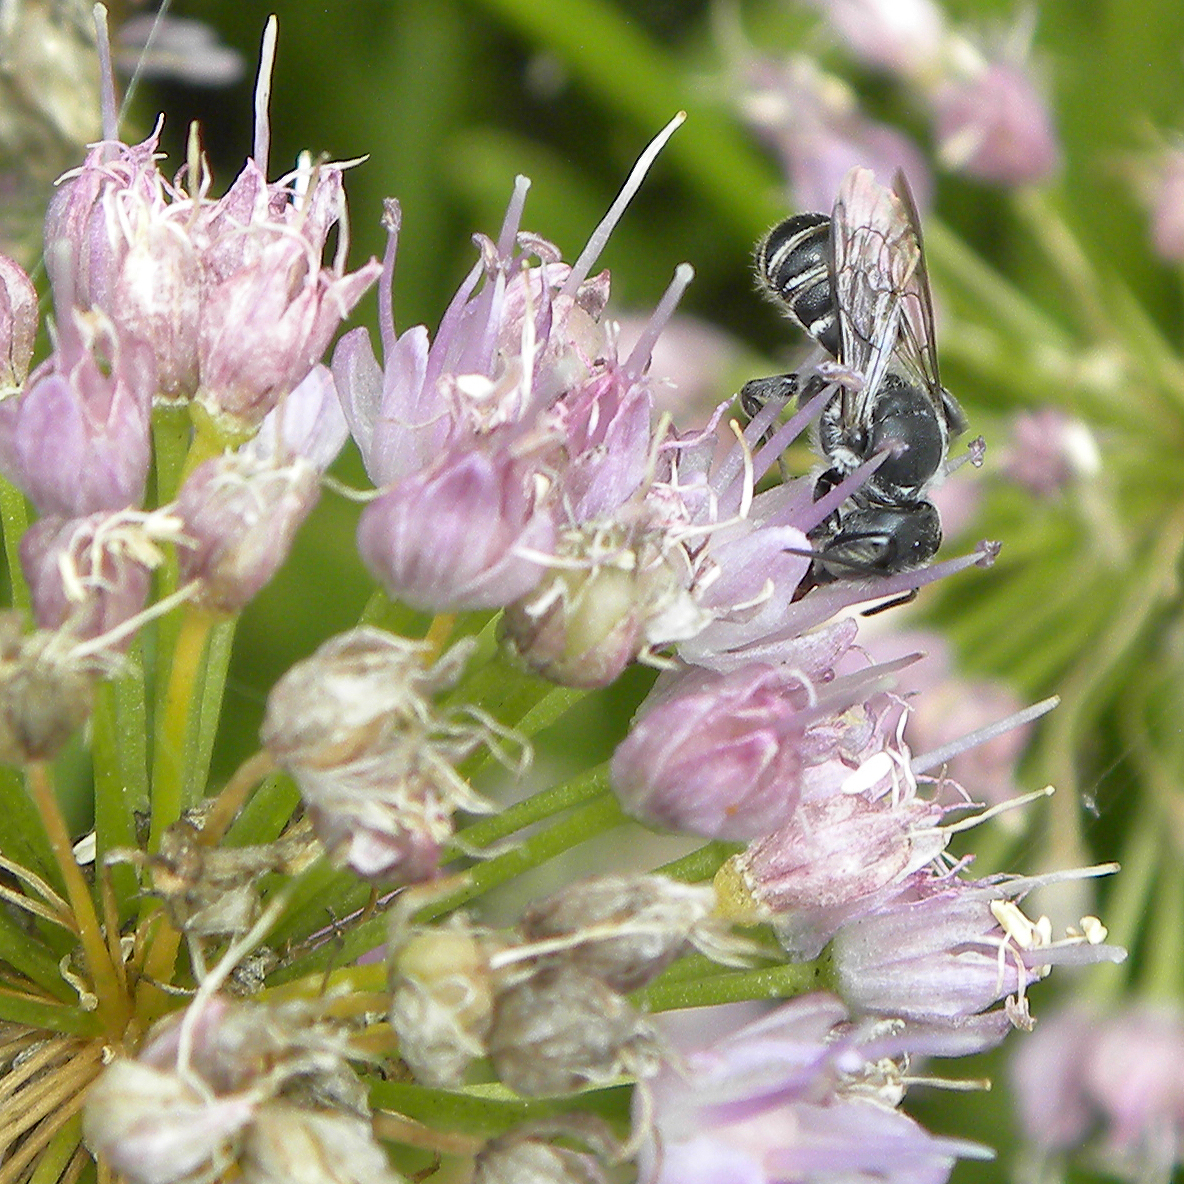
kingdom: Animalia
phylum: Arthropoda
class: Insecta
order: Hymenoptera
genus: Chelostomoides
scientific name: Chelostomoides
